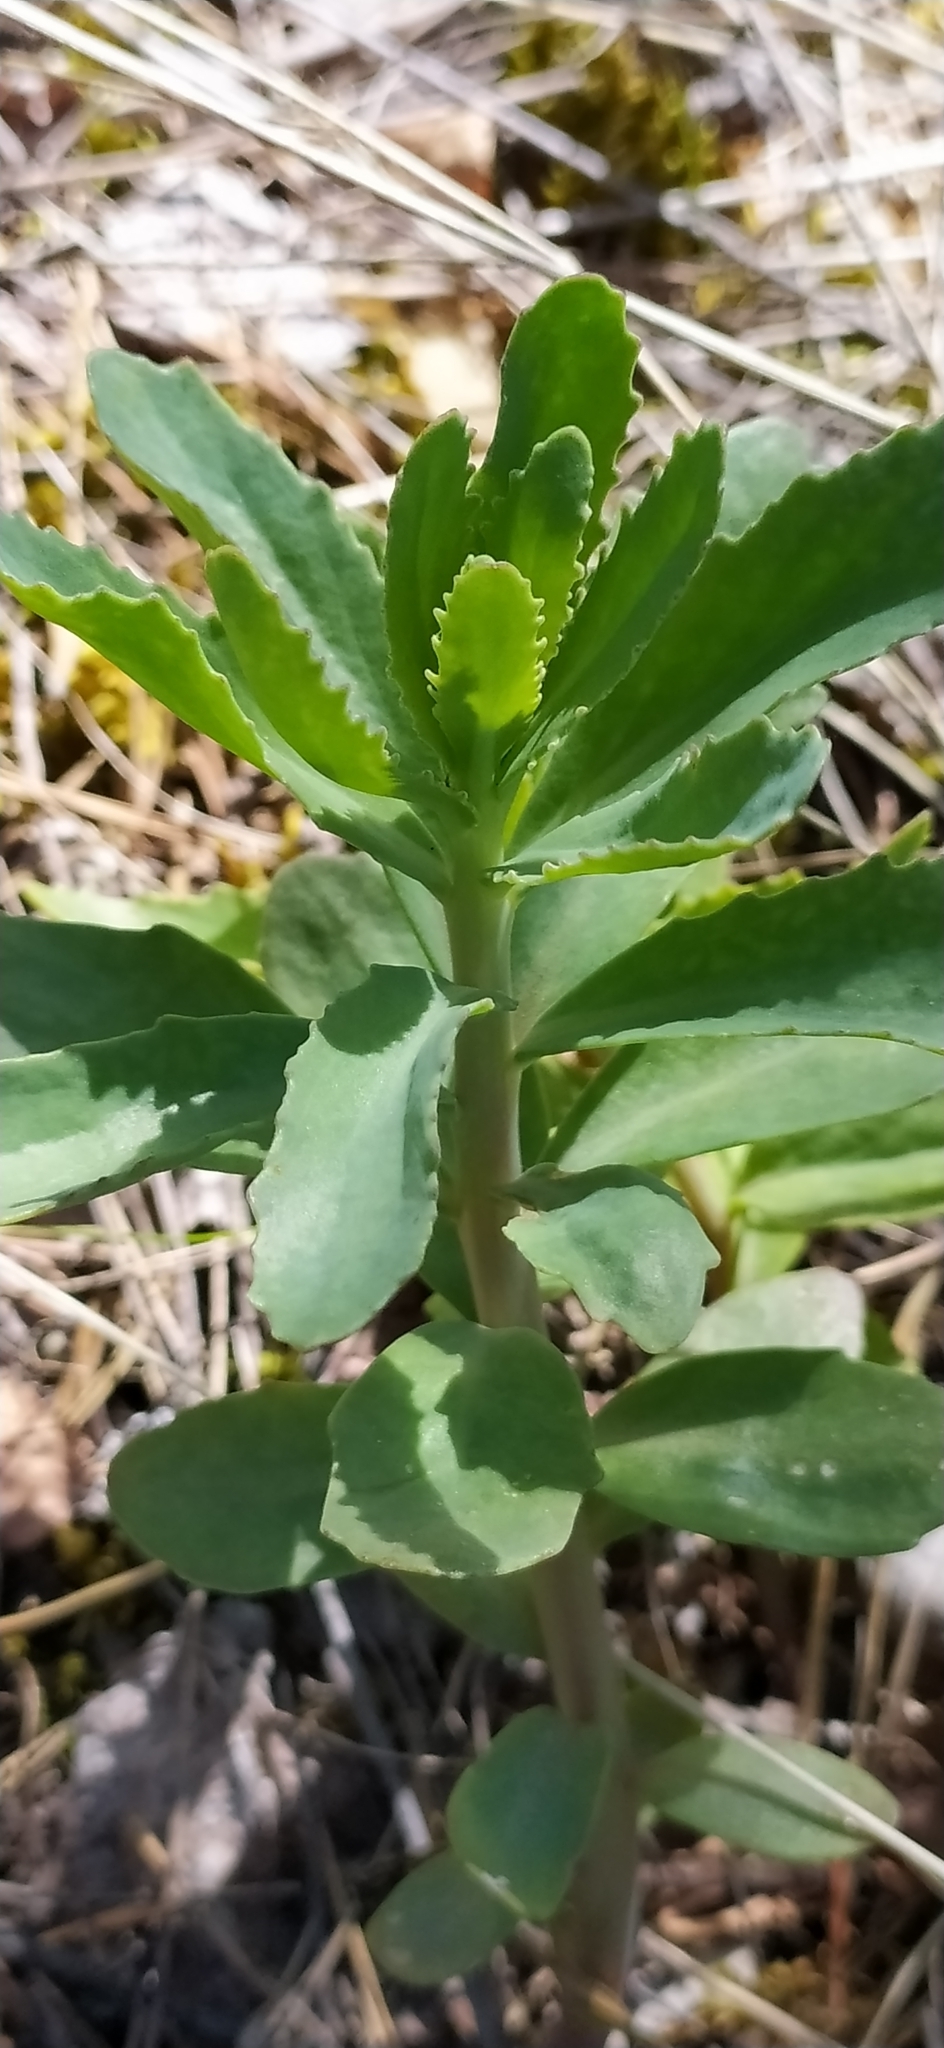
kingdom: Plantae
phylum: Tracheophyta
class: Magnoliopsida
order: Saxifragales
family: Crassulaceae
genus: Hylotelephium
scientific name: Hylotelephium telephium
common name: Live-forever
